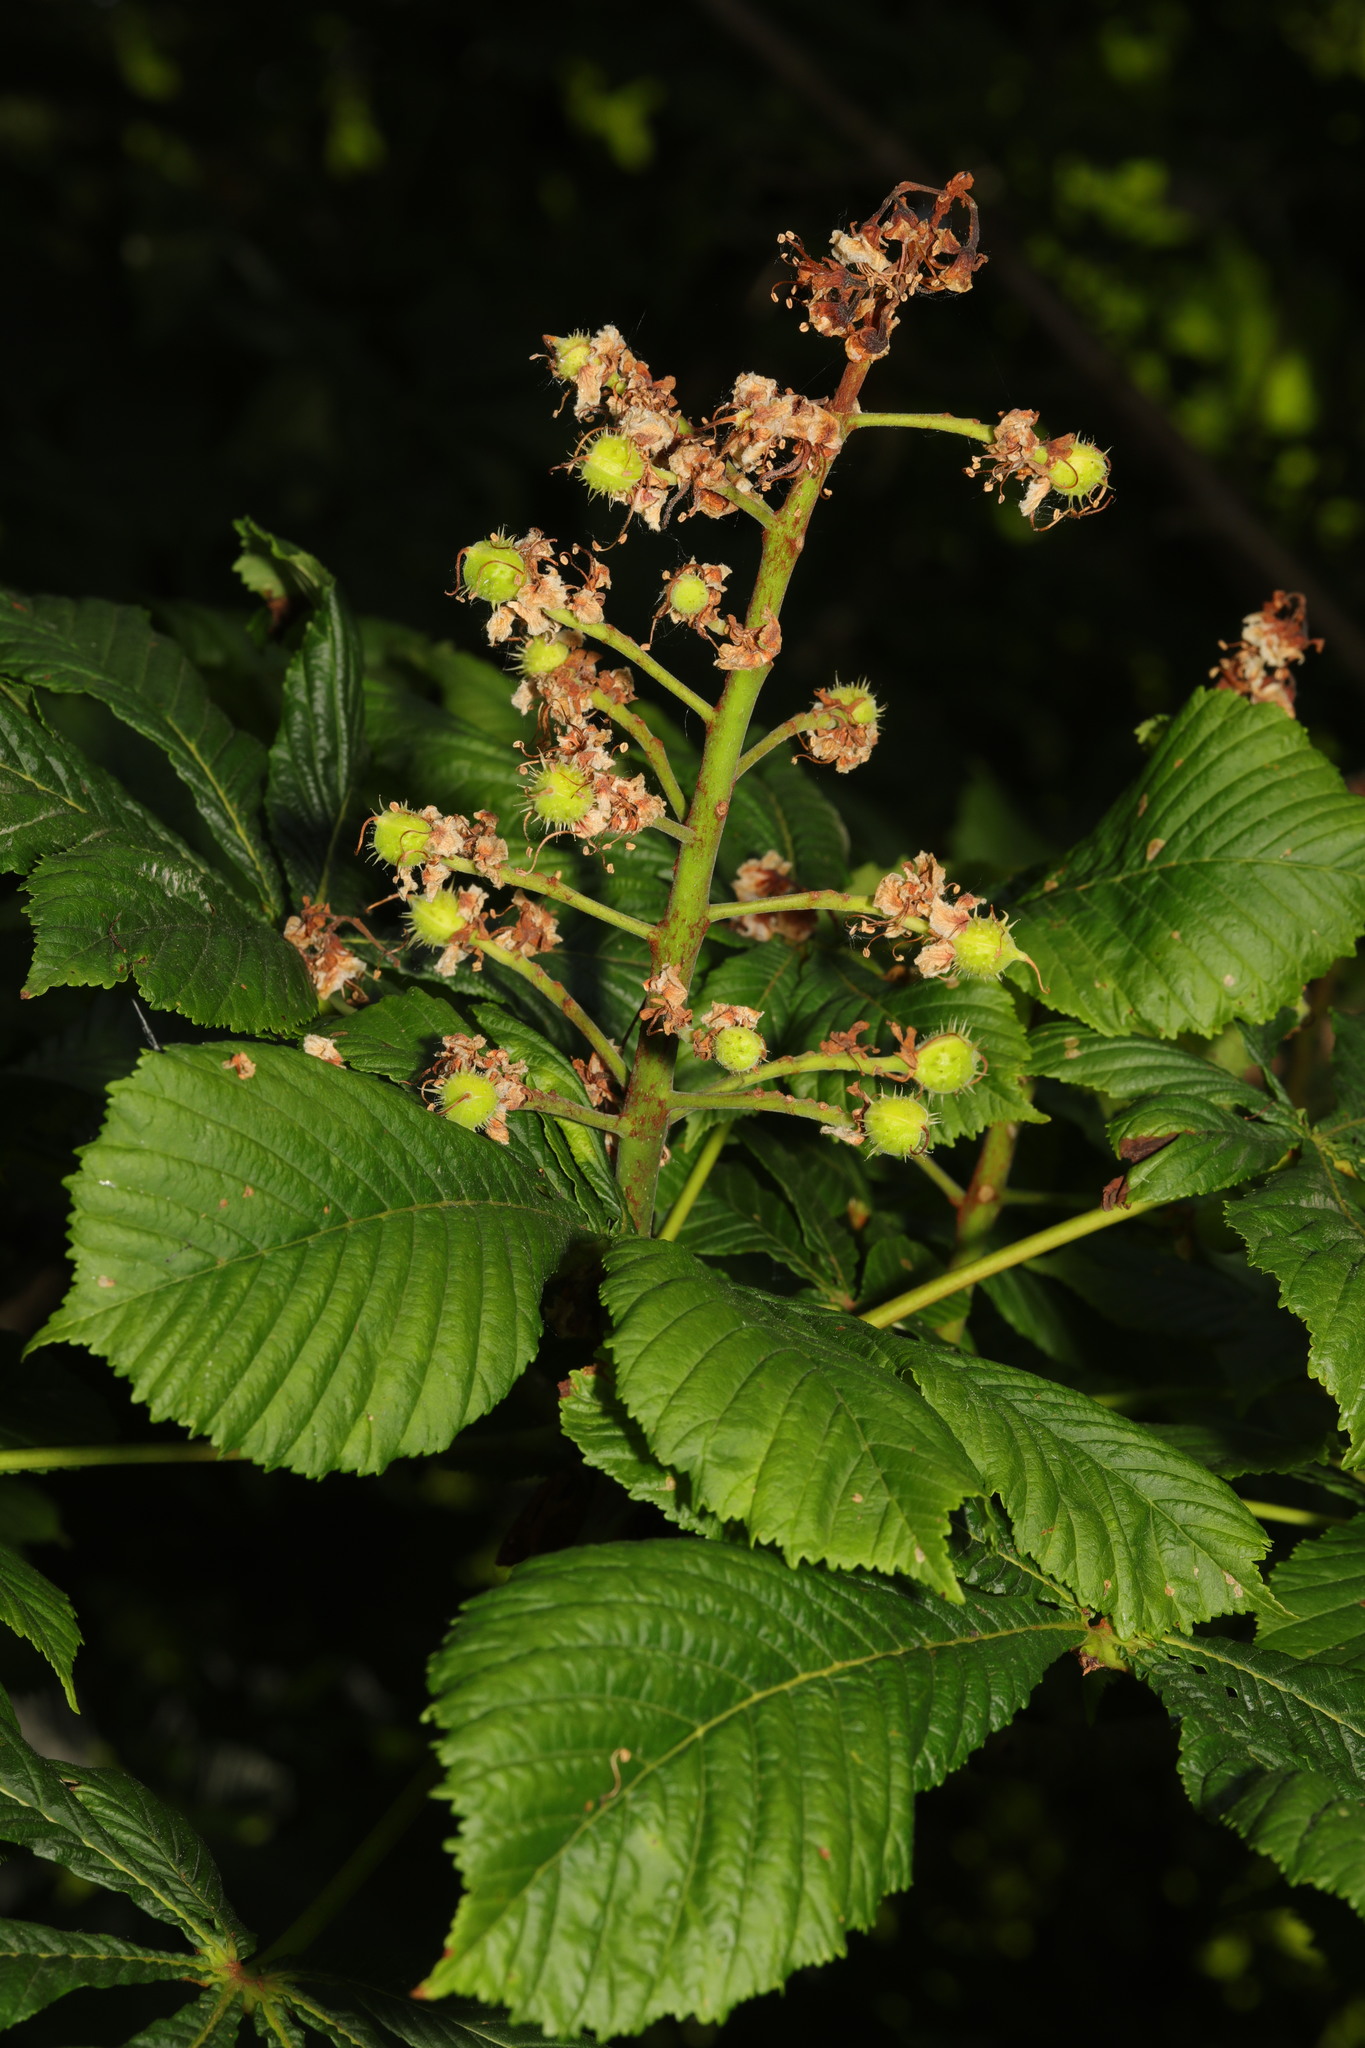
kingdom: Plantae
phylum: Tracheophyta
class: Magnoliopsida
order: Sapindales
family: Sapindaceae
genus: Aesculus
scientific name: Aesculus hippocastanum
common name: Horse-chestnut
